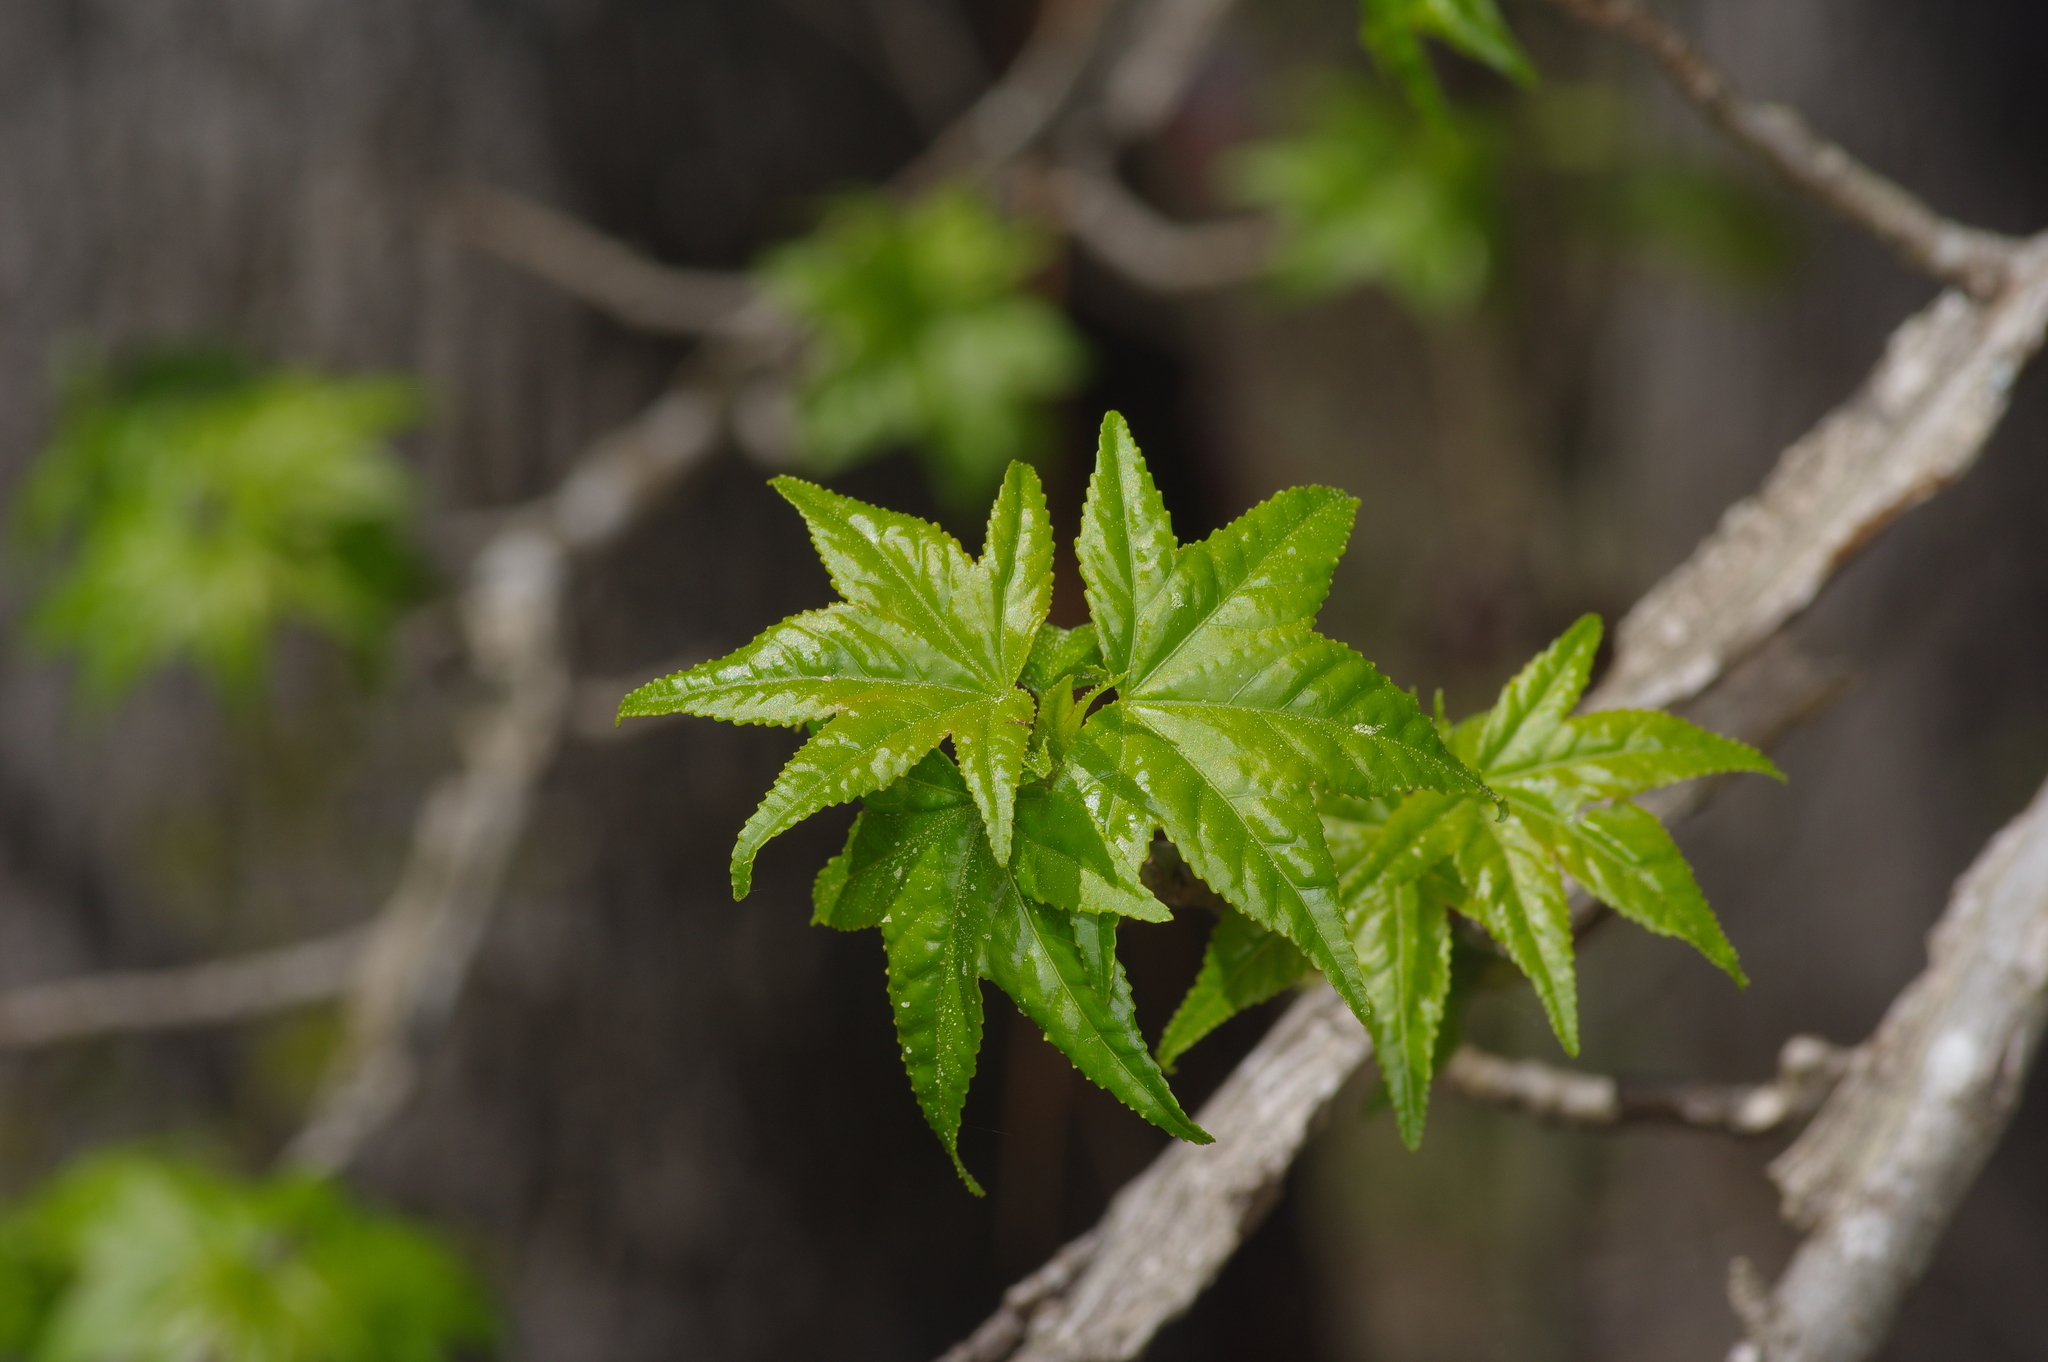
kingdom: Plantae
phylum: Tracheophyta
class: Magnoliopsida
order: Saxifragales
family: Altingiaceae
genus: Liquidambar
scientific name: Liquidambar styraciflua
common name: Sweet gum
